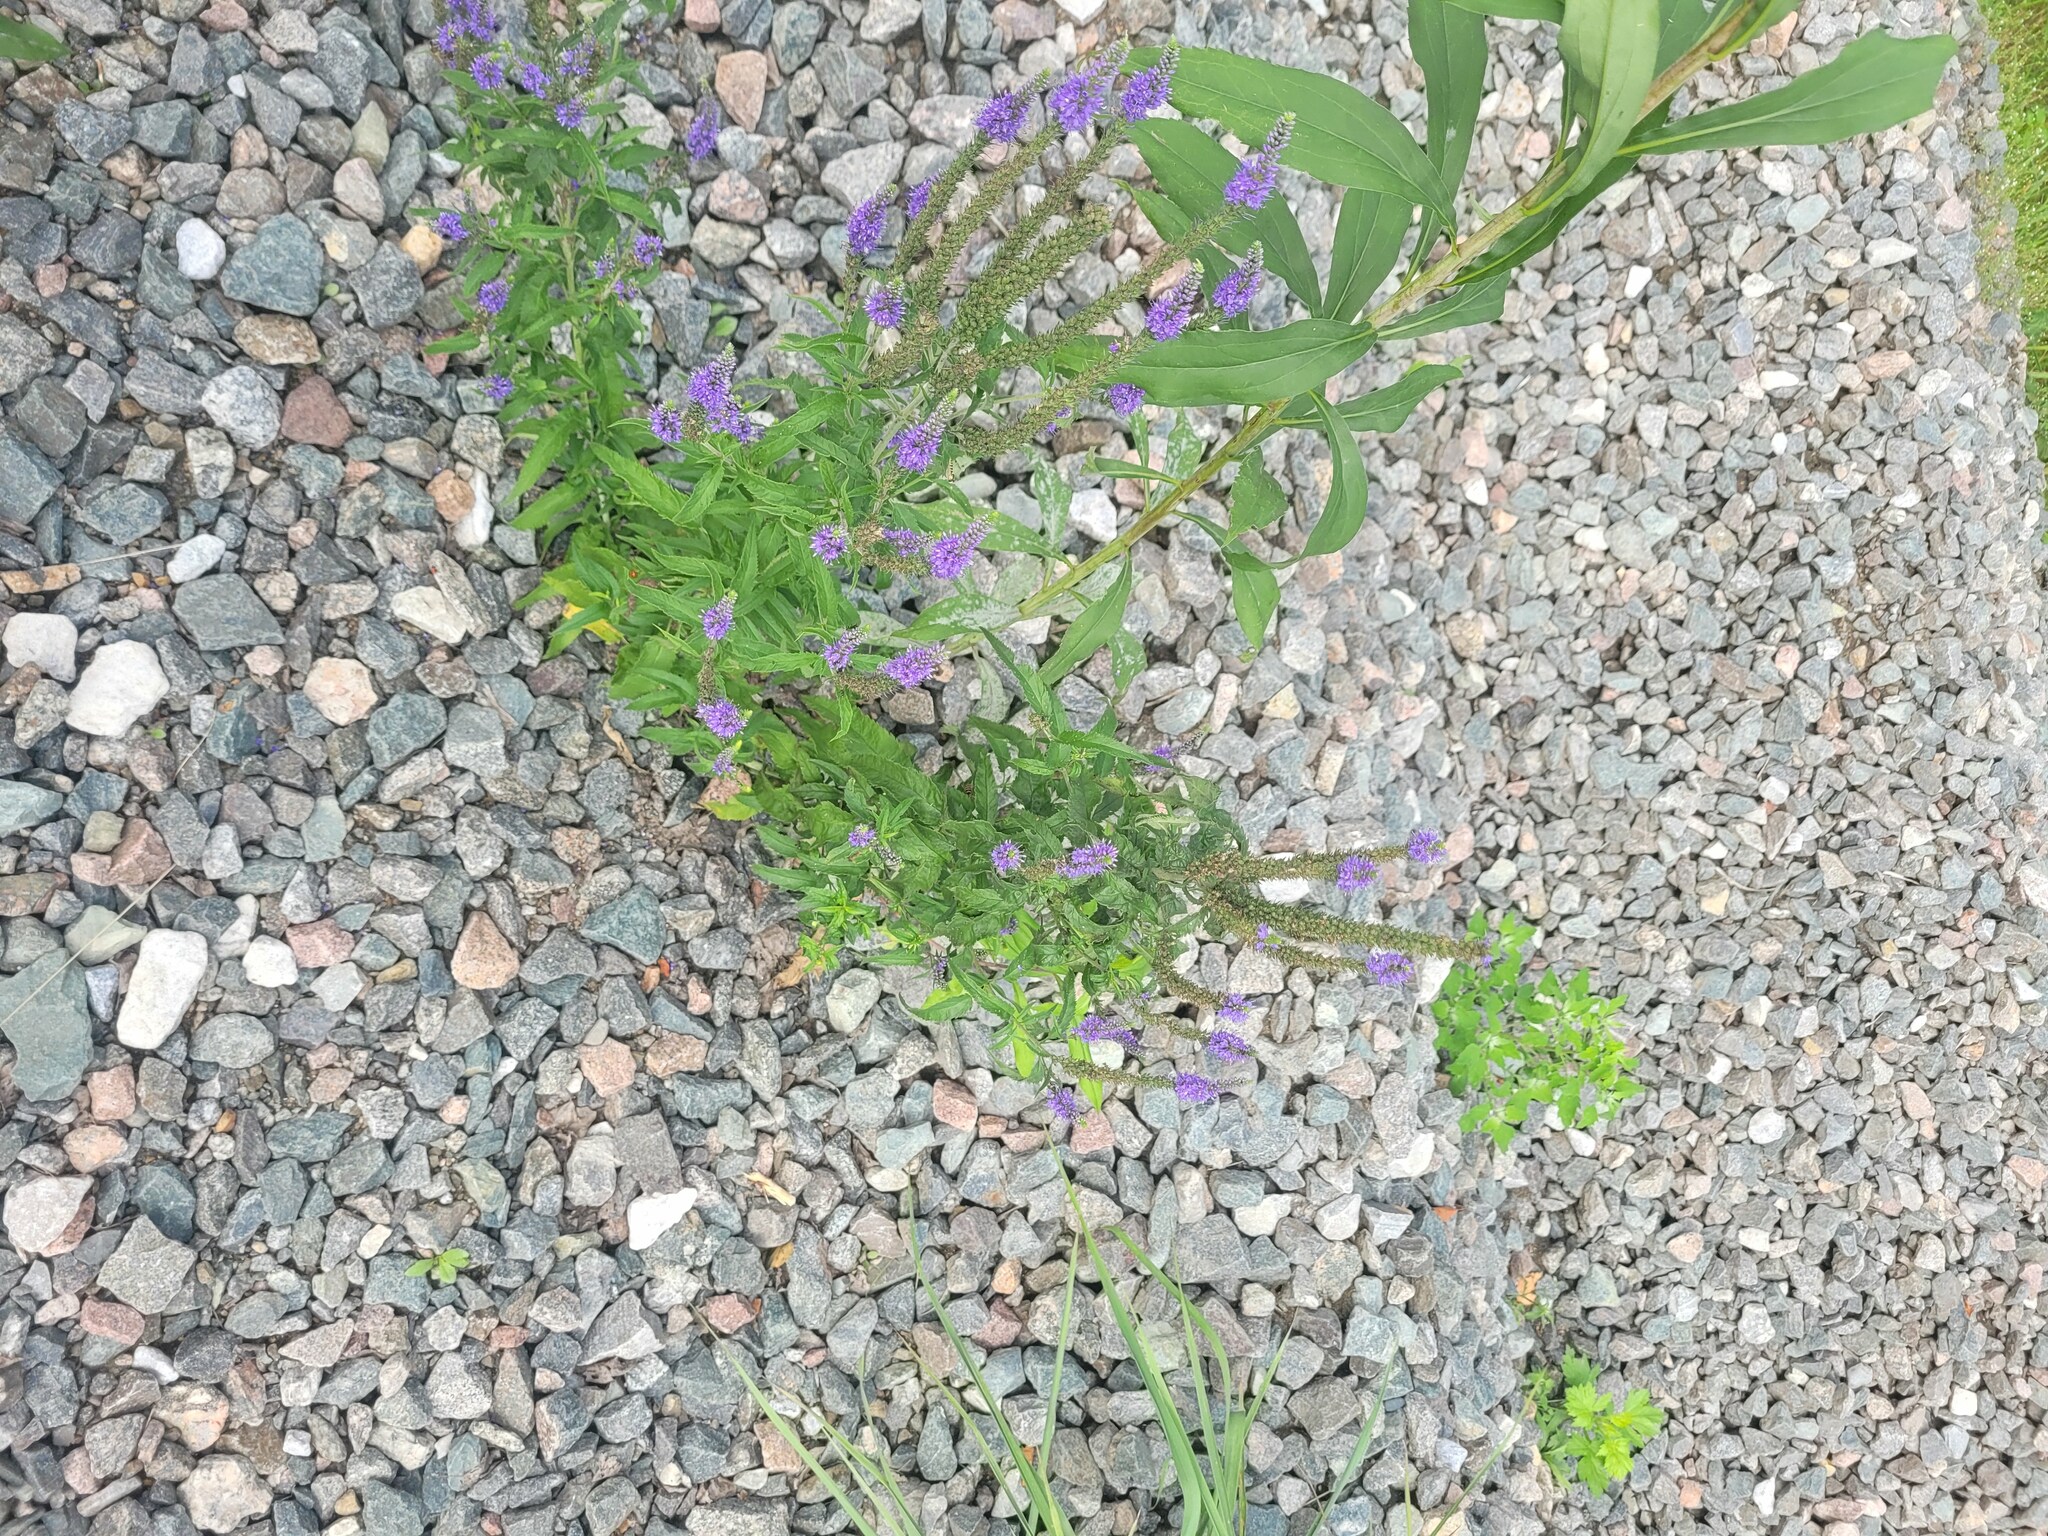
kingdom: Plantae
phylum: Tracheophyta
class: Magnoliopsida
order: Lamiales
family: Plantaginaceae
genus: Veronica
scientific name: Veronica longifolia
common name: Garden speedwell
